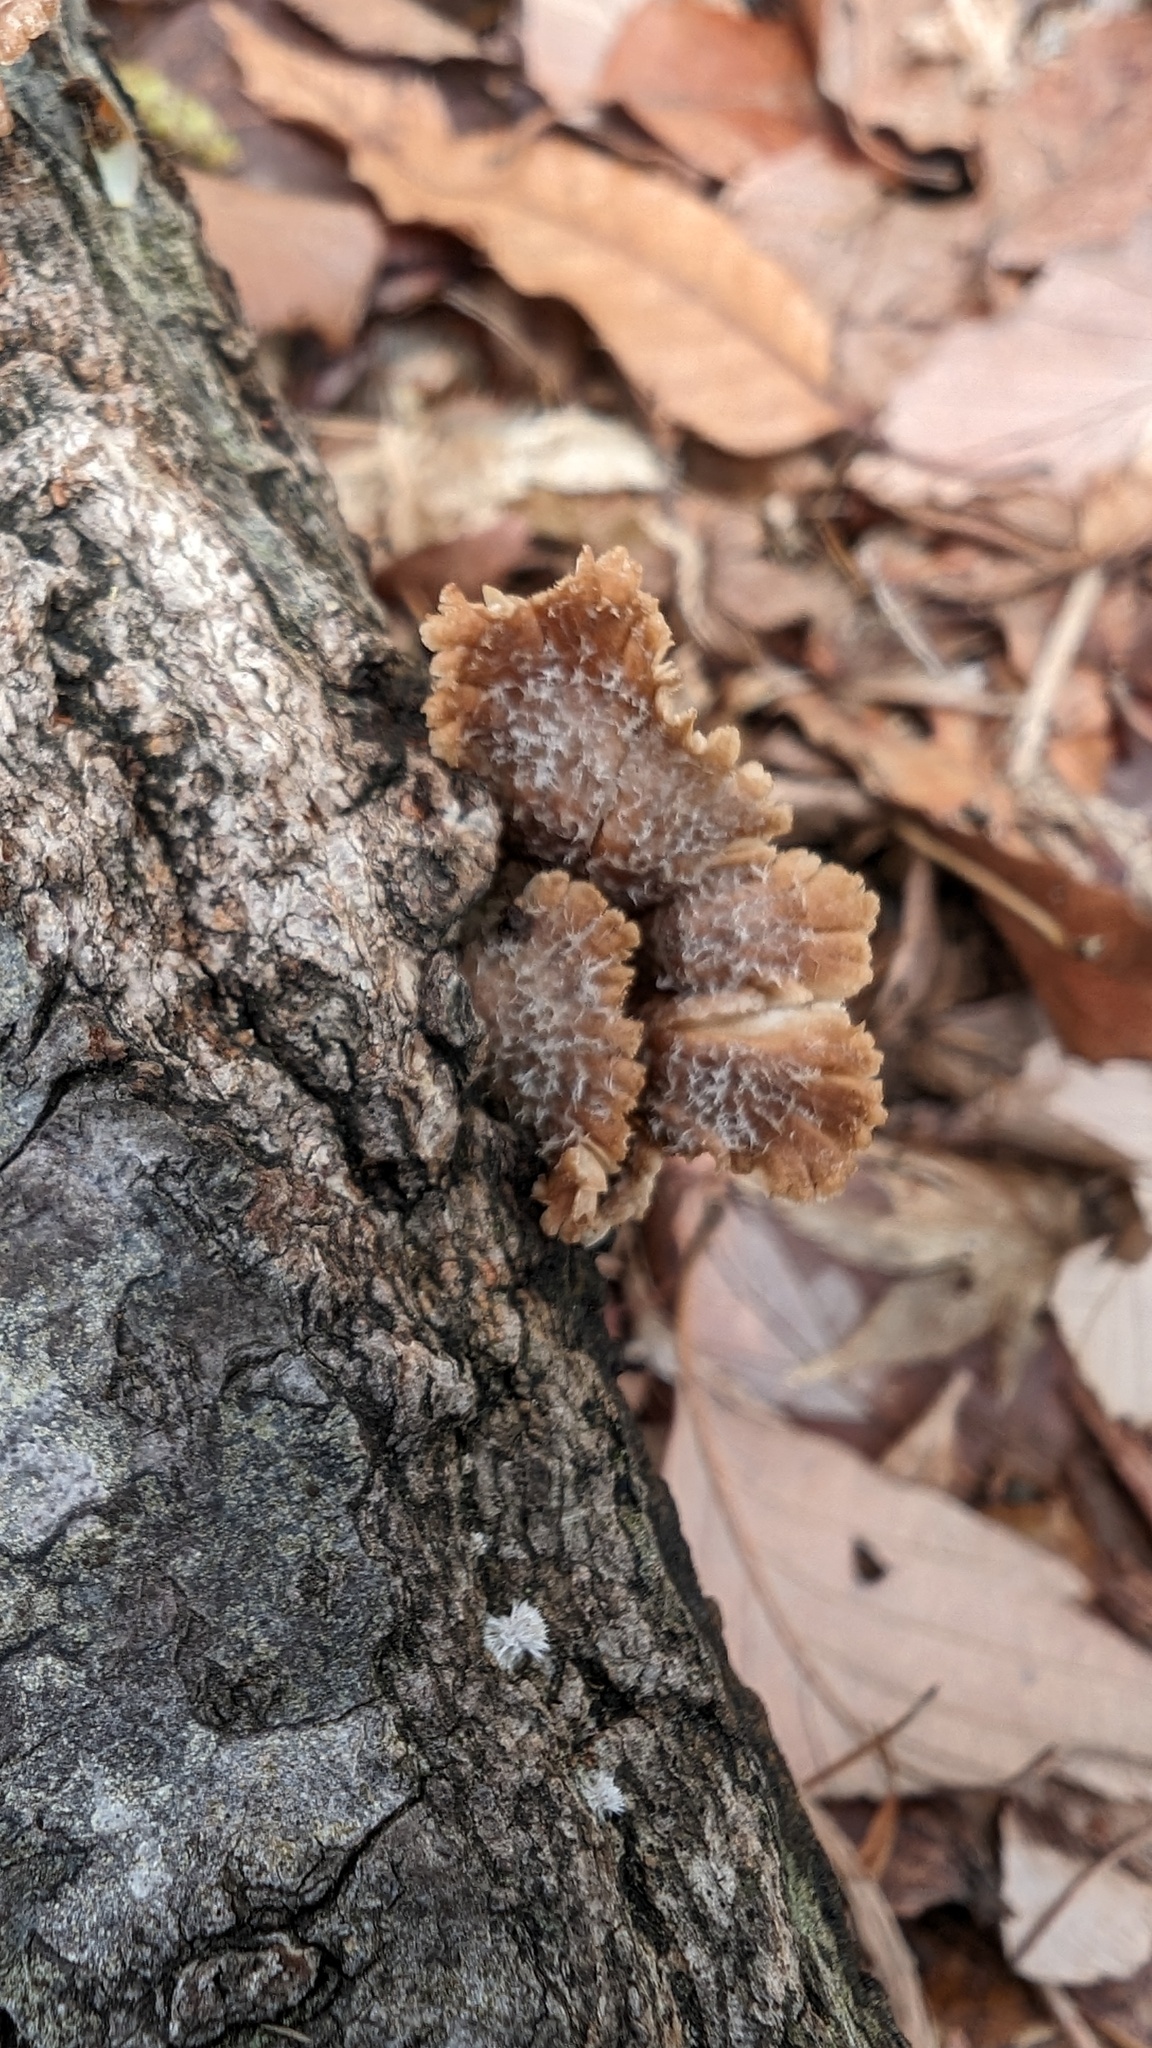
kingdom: Fungi
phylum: Basidiomycota
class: Agaricomycetes
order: Agaricales
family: Schizophyllaceae
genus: Schizophyllum
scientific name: Schizophyllum commune
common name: Common porecrust
